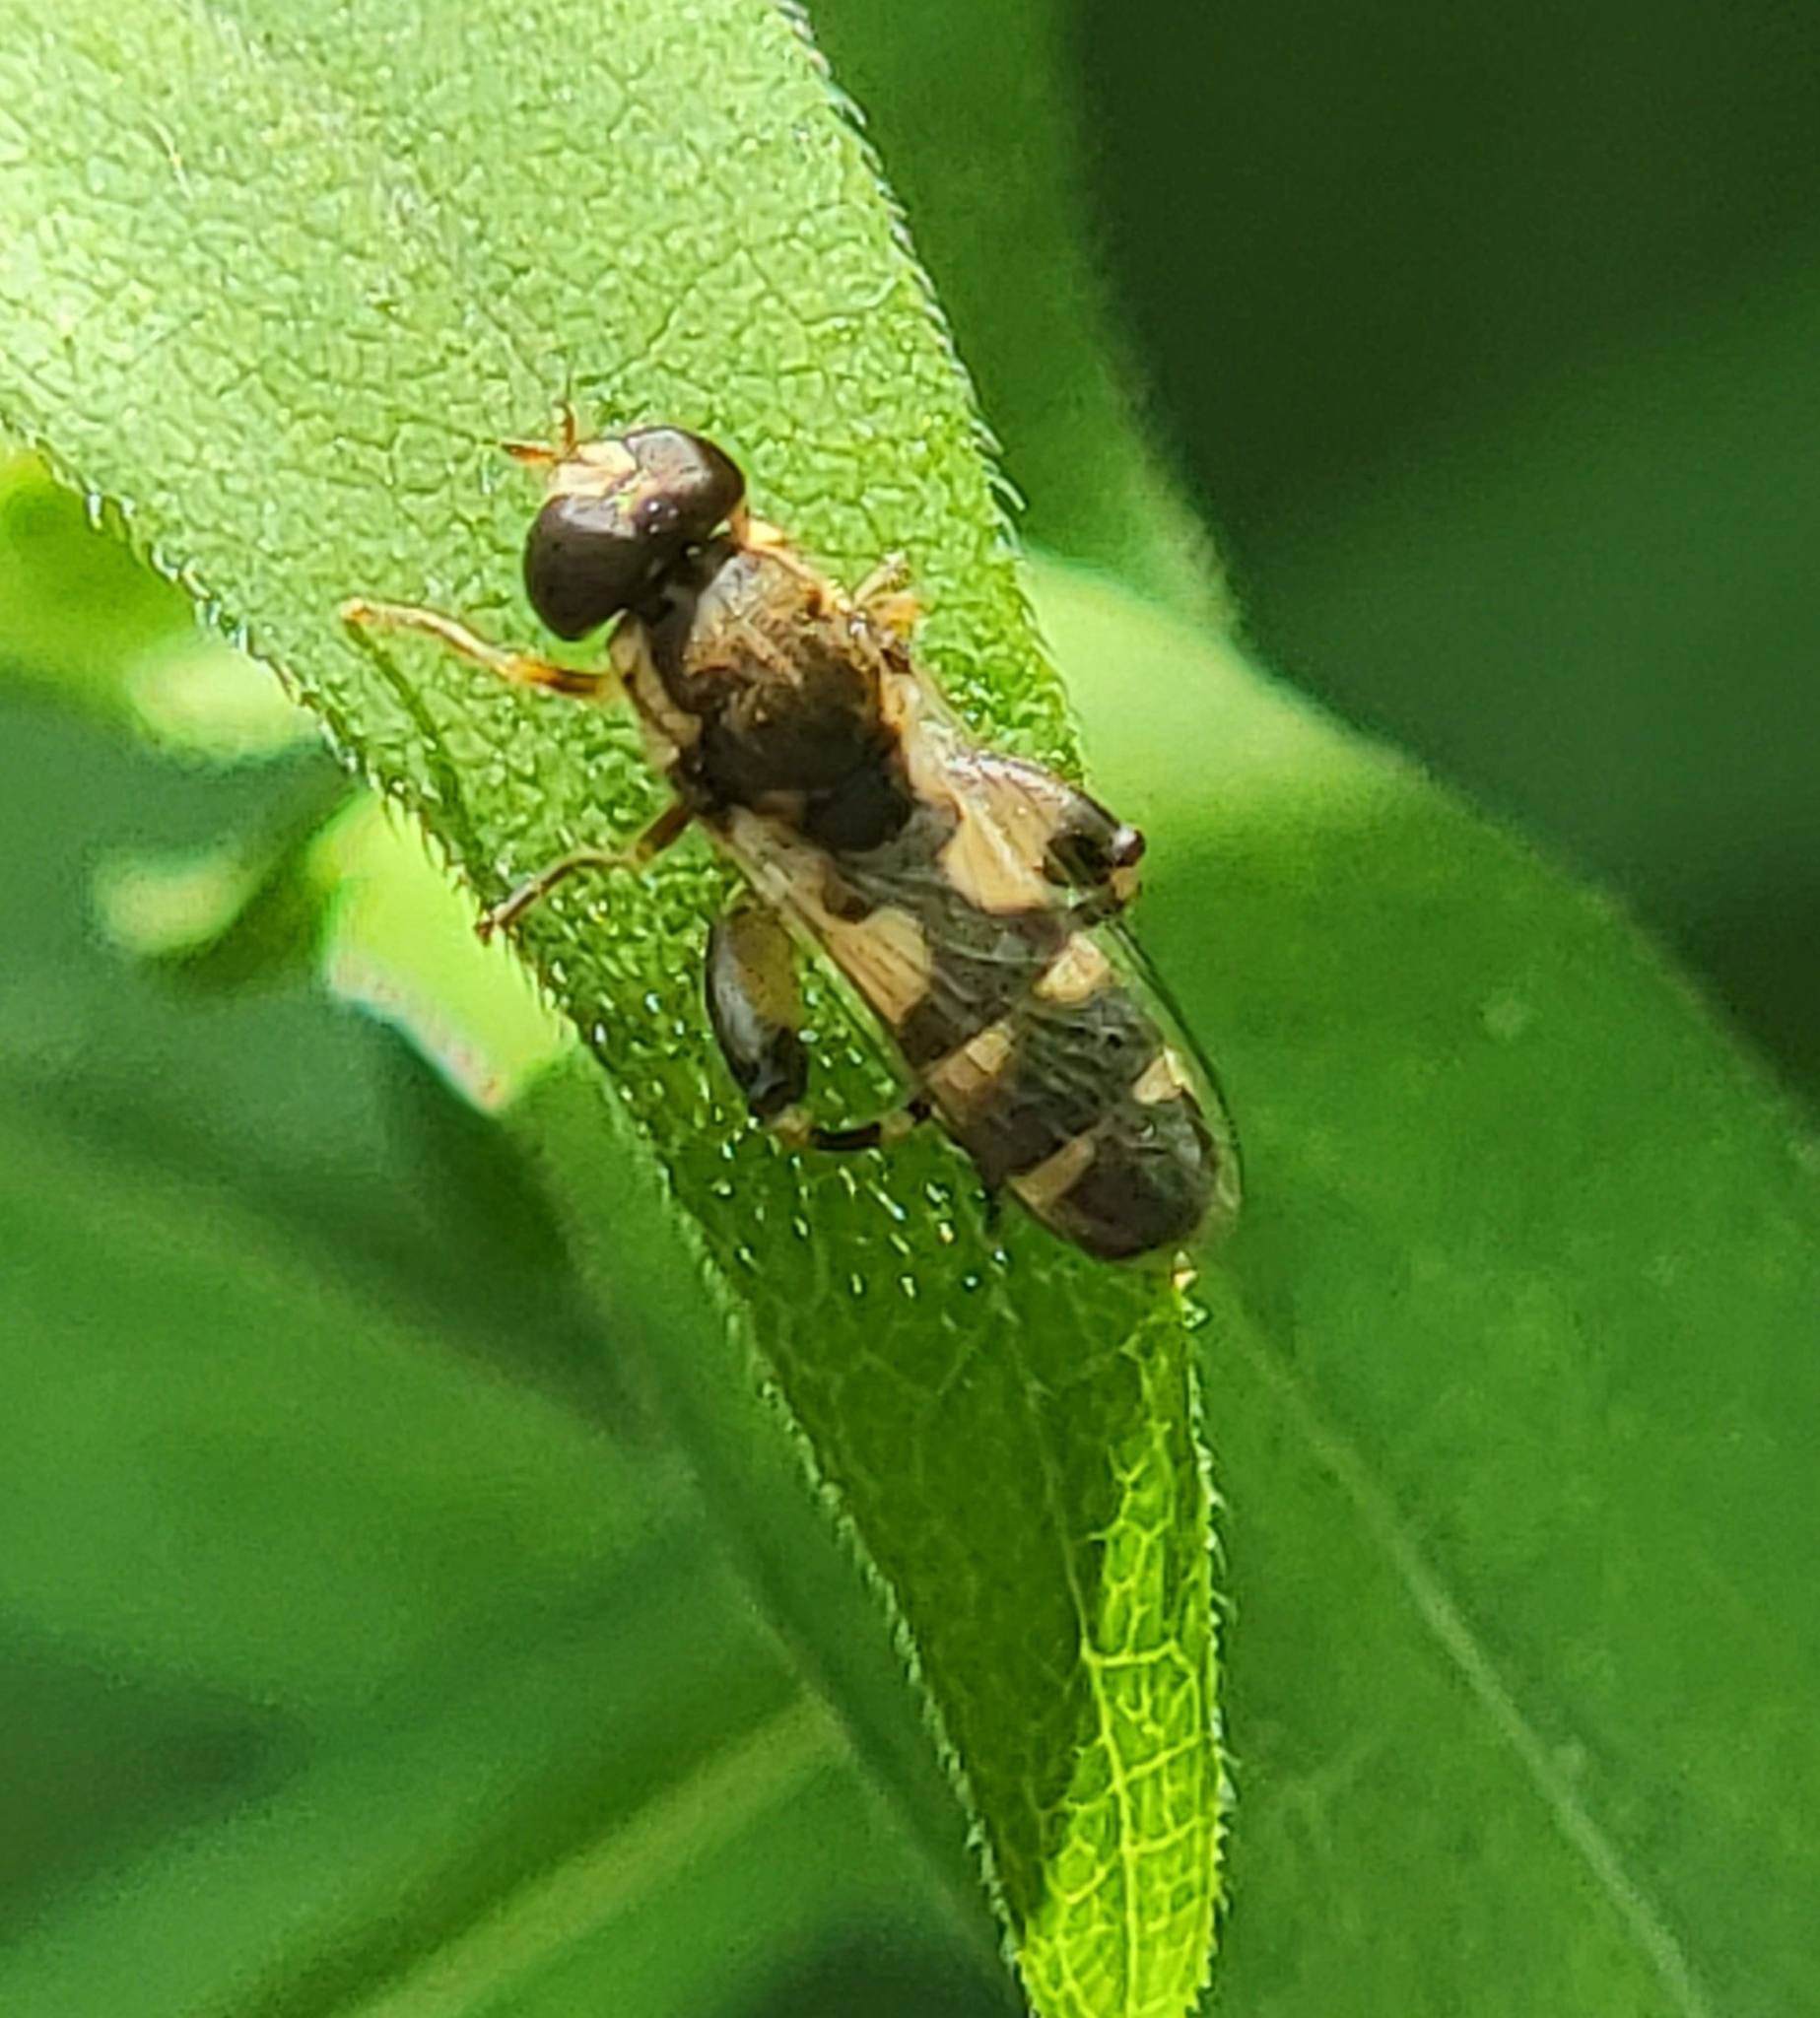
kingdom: Animalia
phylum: Arthropoda
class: Insecta
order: Diptera
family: Syrphidae
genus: Syritta
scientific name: Syritta pipiens
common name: Hover fly
